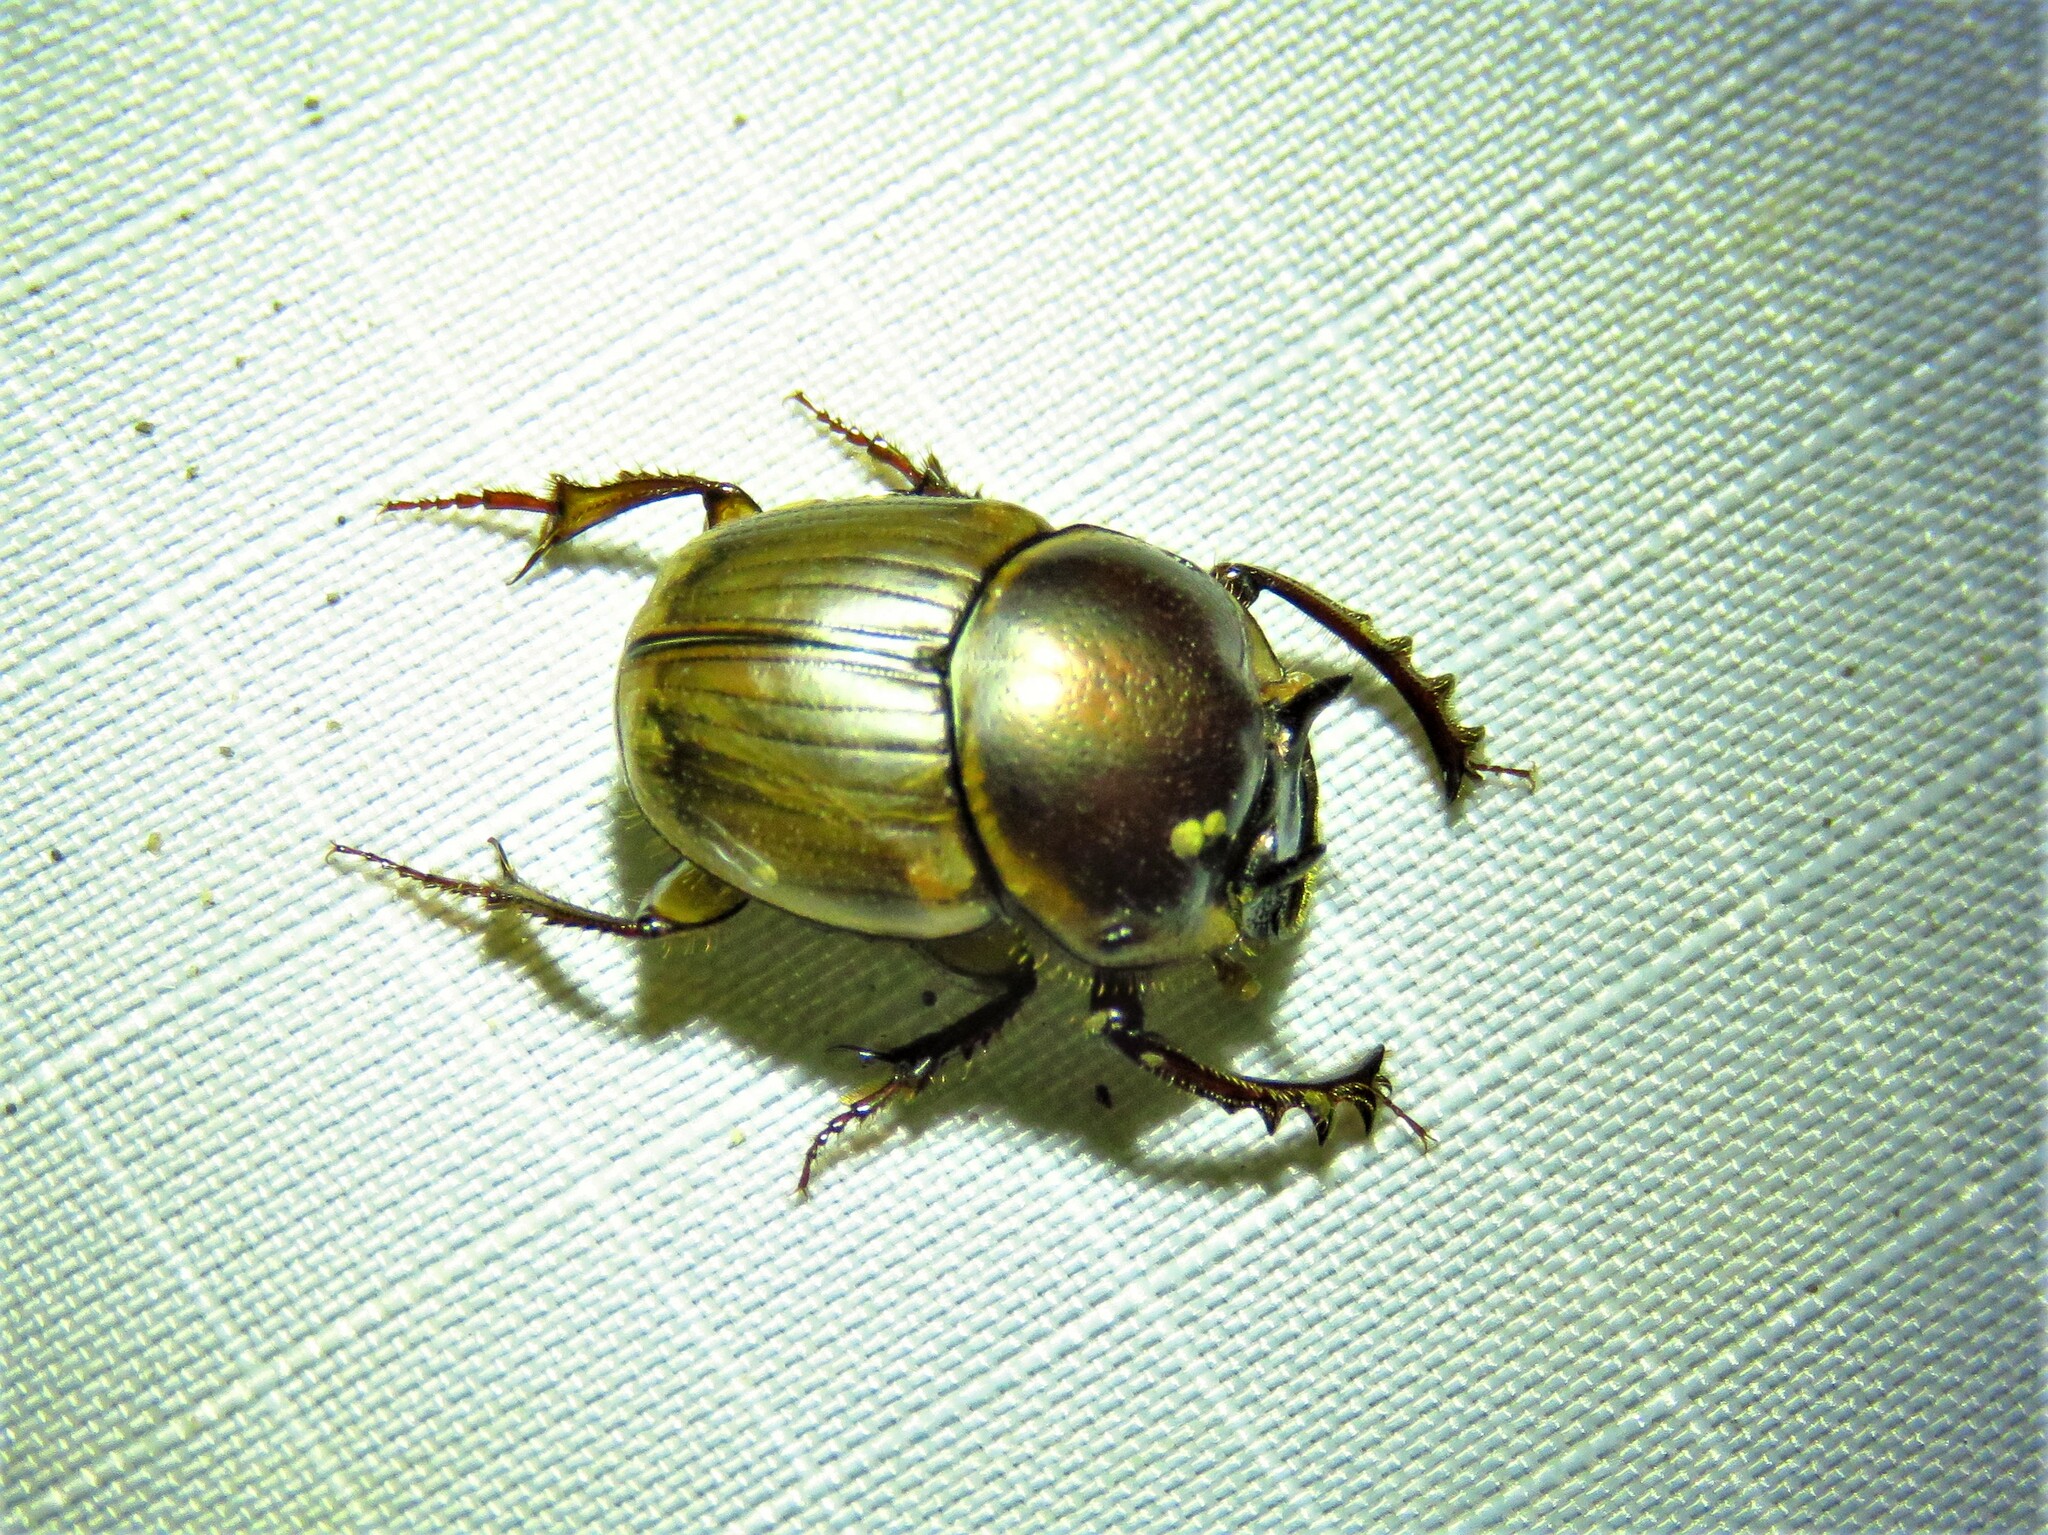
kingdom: Animalia
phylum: Arthropoda
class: Insecta
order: Coleoptera
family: Scarabaeidae
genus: Digitonthophagus
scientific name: Digitonthophagus gazella
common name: Brown dung beetle
